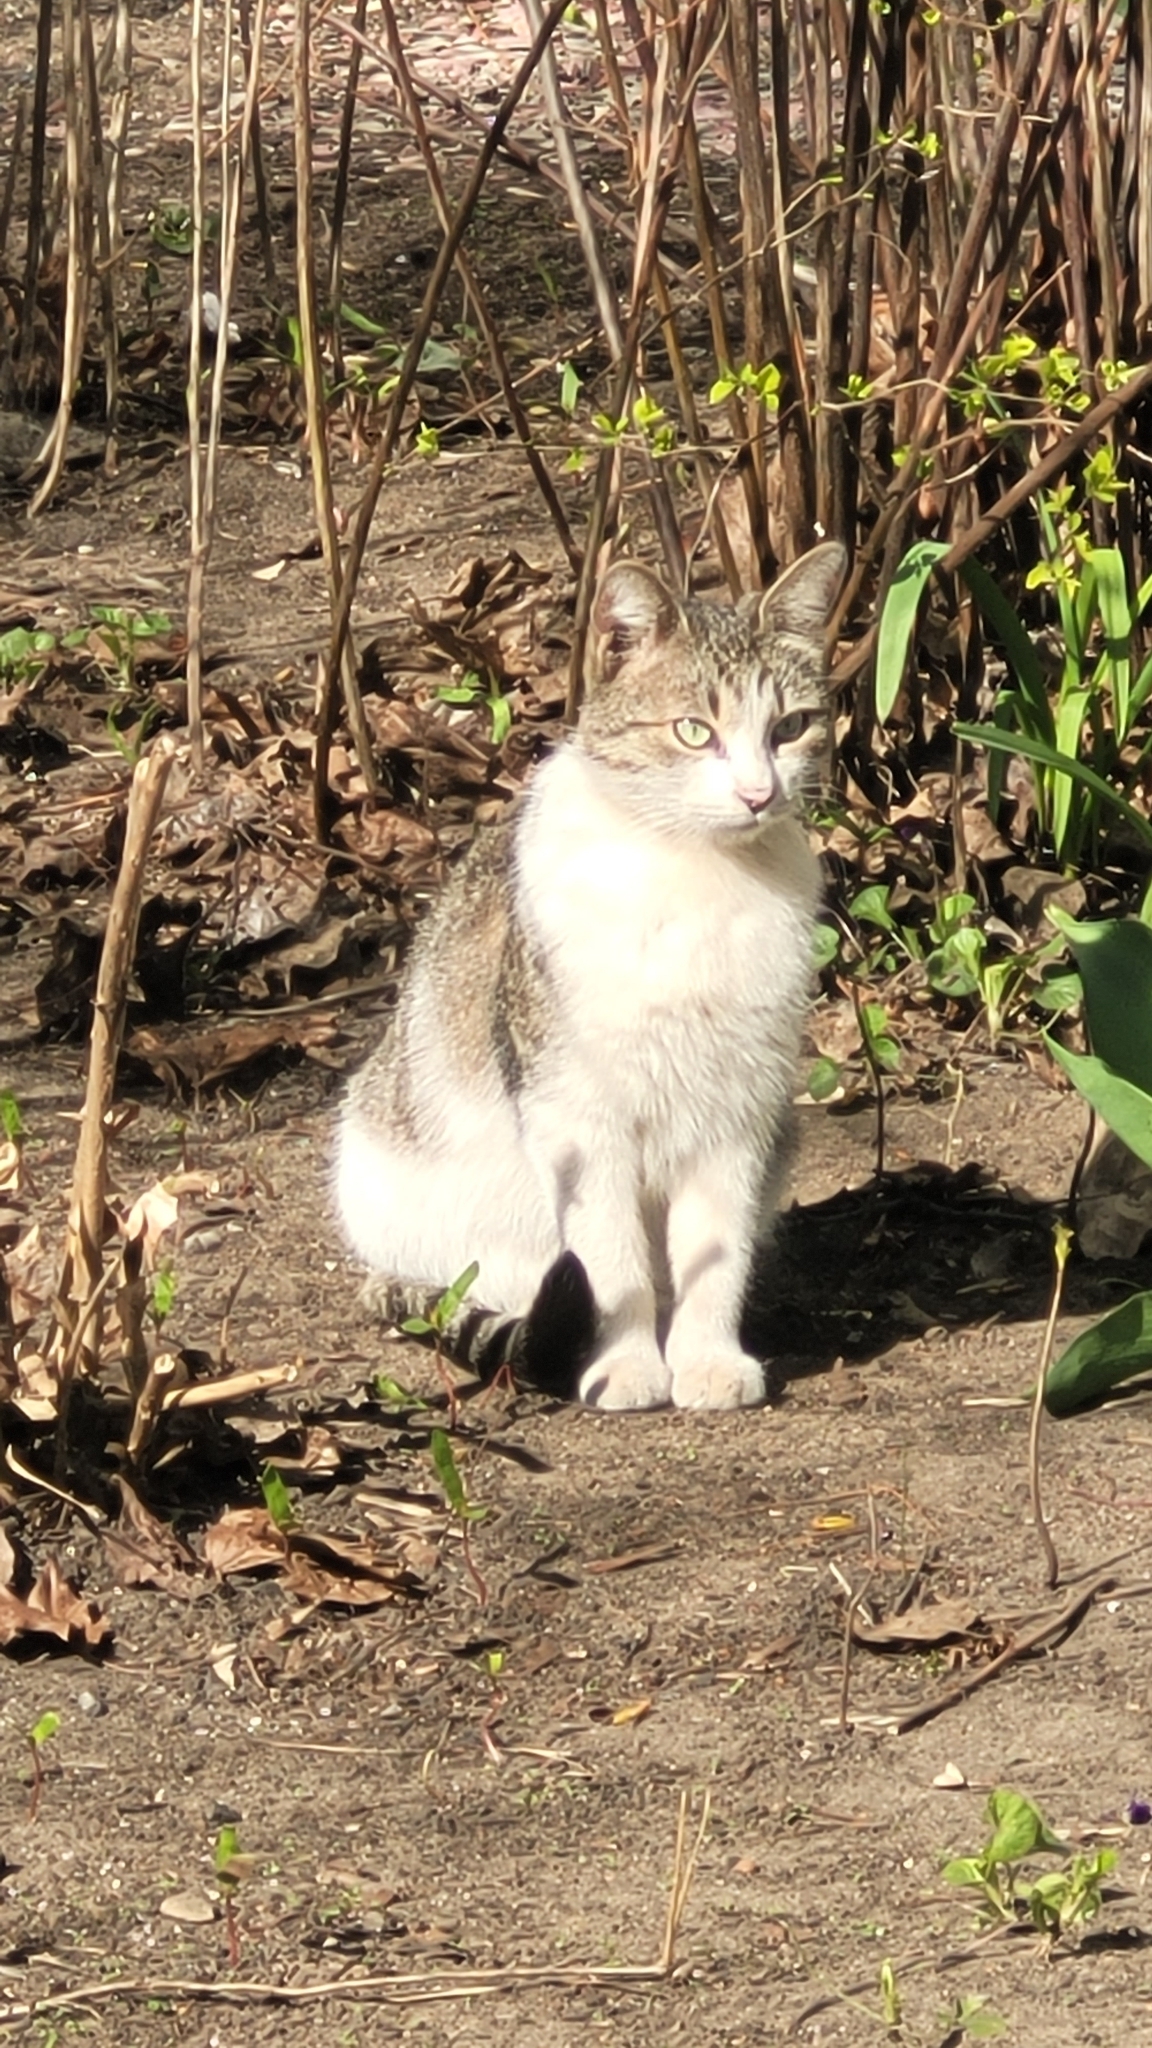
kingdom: Animalia
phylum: Chordata
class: Mammalia
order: Carnivora
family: Felidae
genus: Felis
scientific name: Felis catus
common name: Domestic cat
